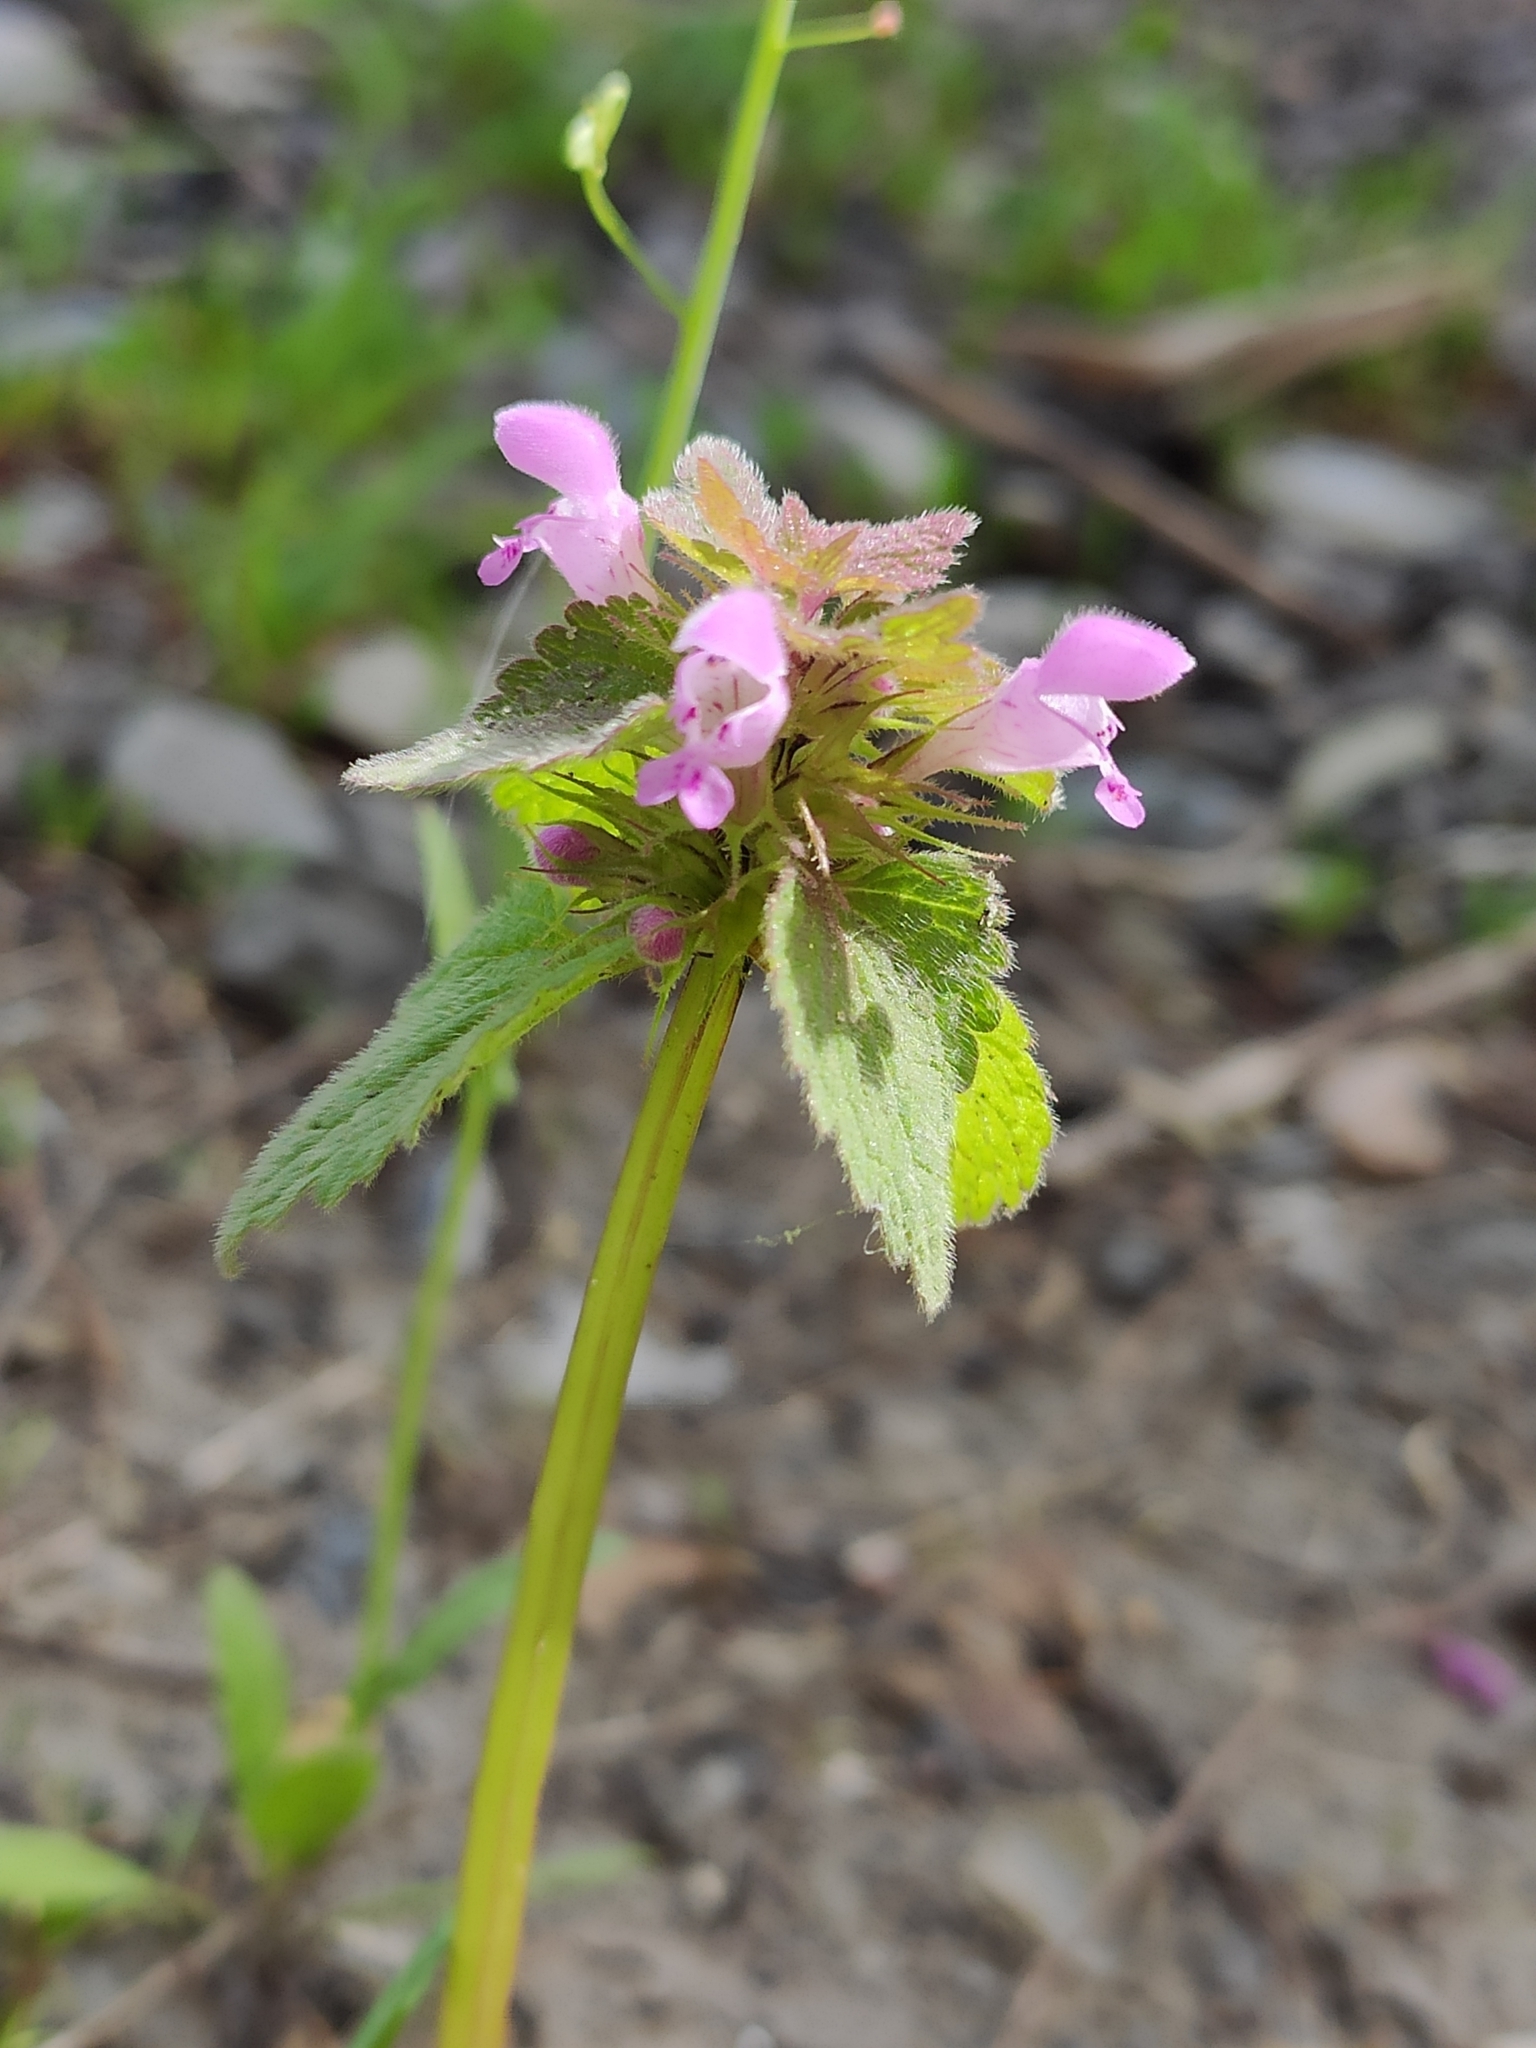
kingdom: Plantae
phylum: Tracheophyta
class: Magnoliopsida
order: Lamiales
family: Lamiaceae
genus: Lamium
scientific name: Lamium purpureum
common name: Red dead-nettle
